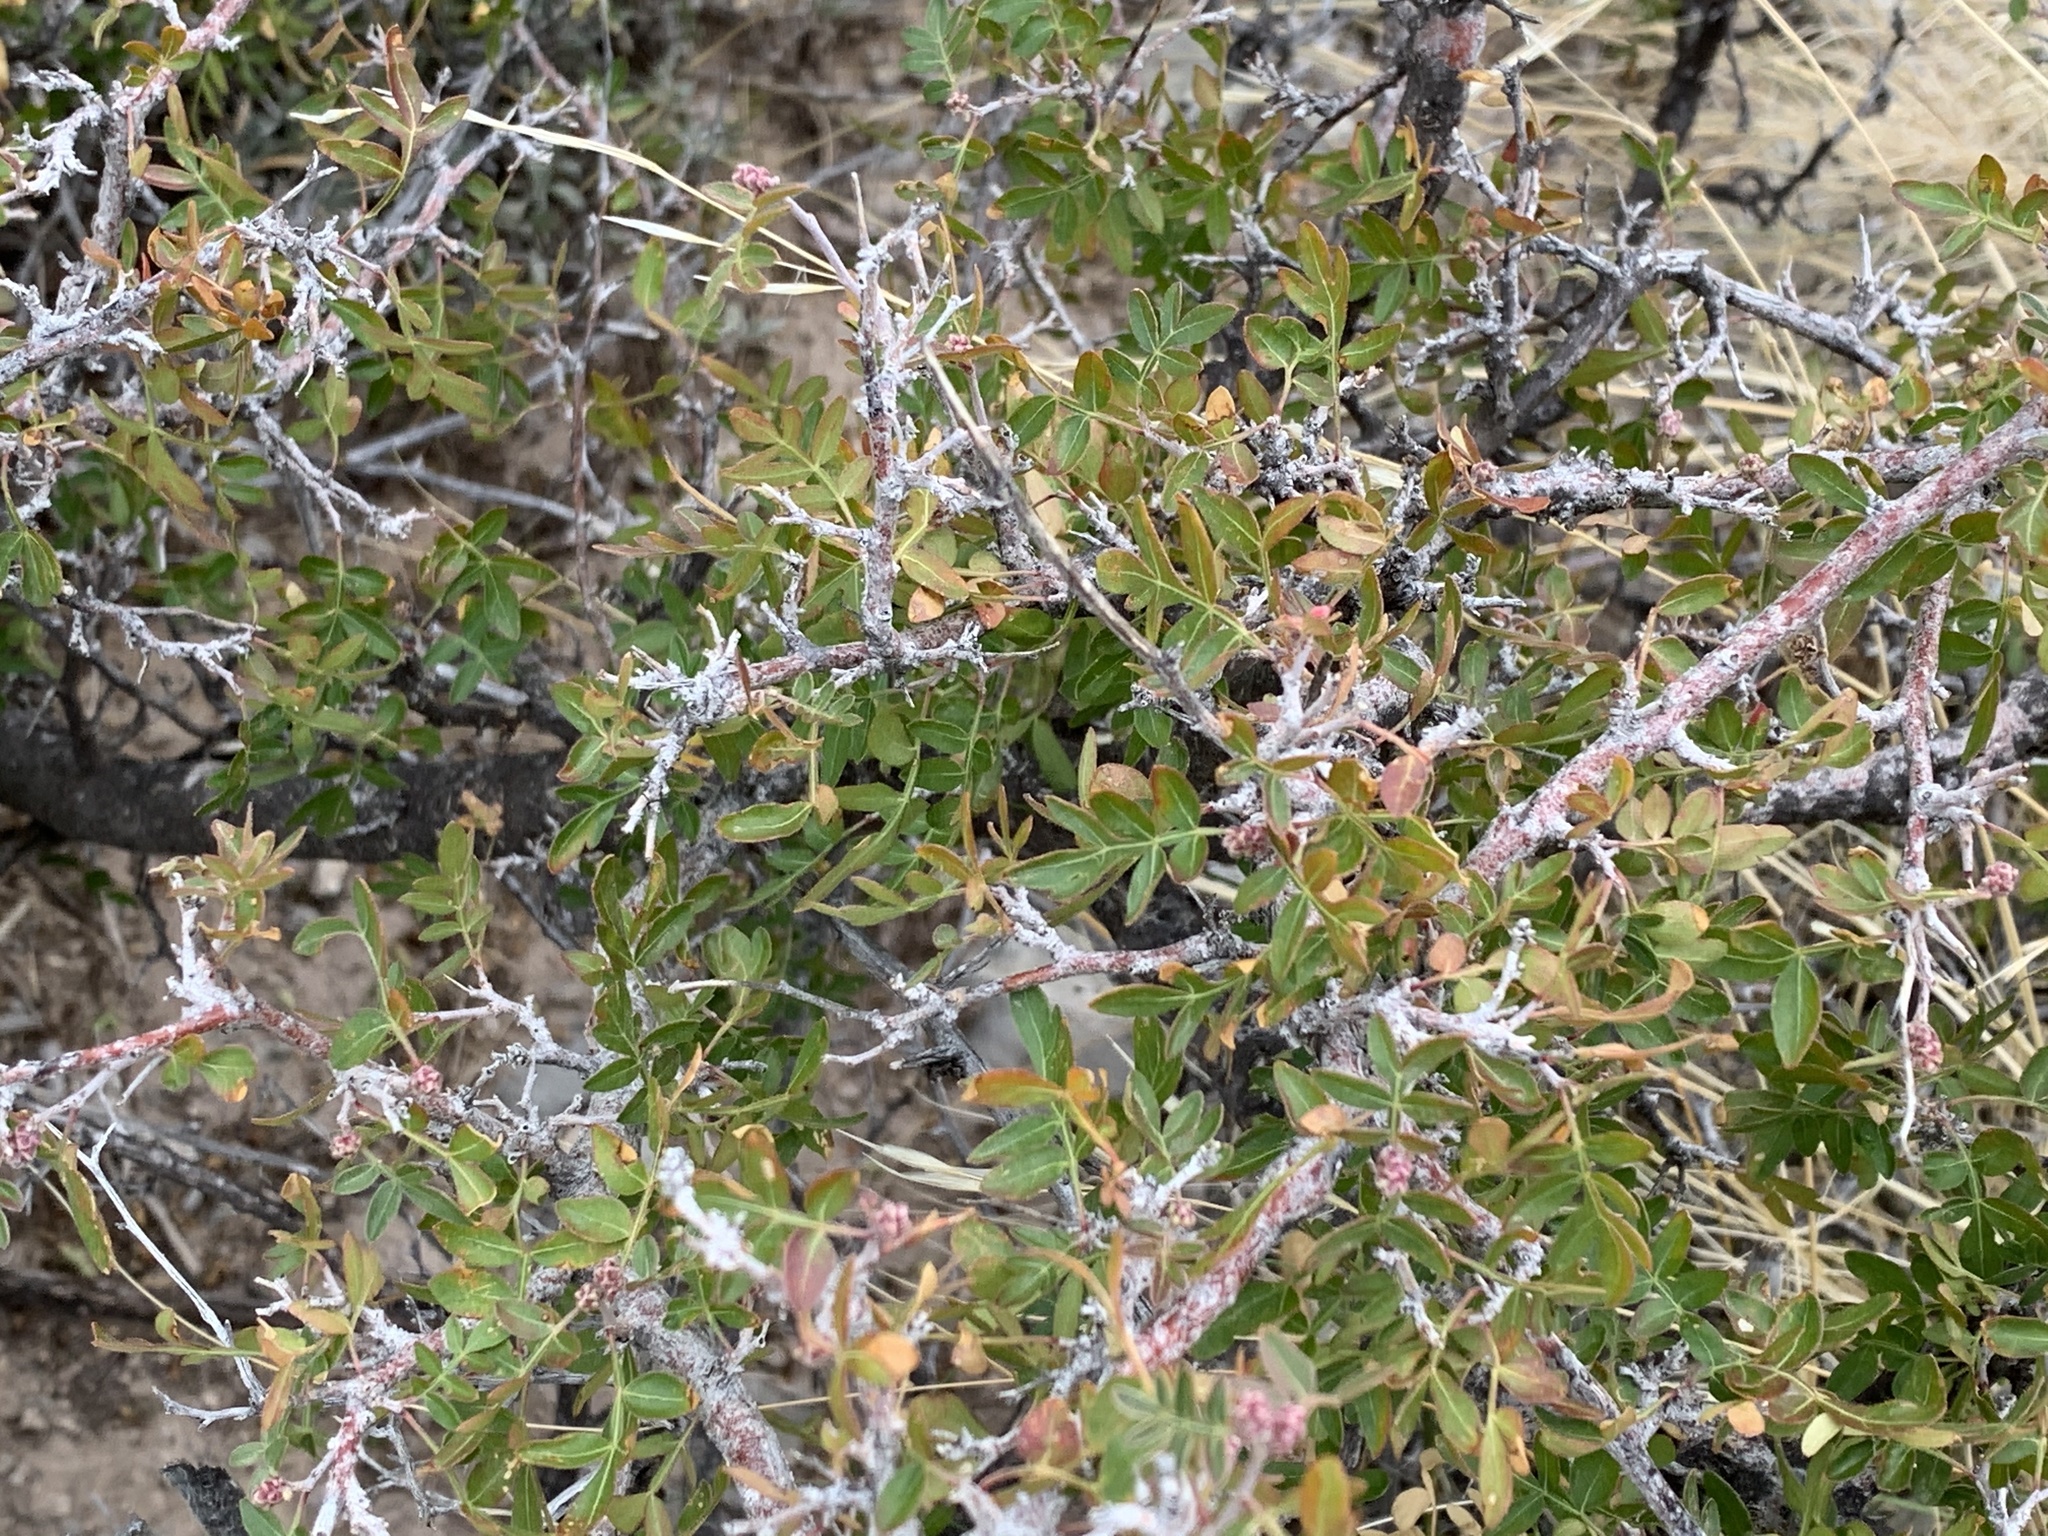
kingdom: Plantae
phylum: Tracheophyta
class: Magnoliopsida
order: Sapindales
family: Anacardiaceae
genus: Rhus
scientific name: Rhus microphylla
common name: Desert sumac
